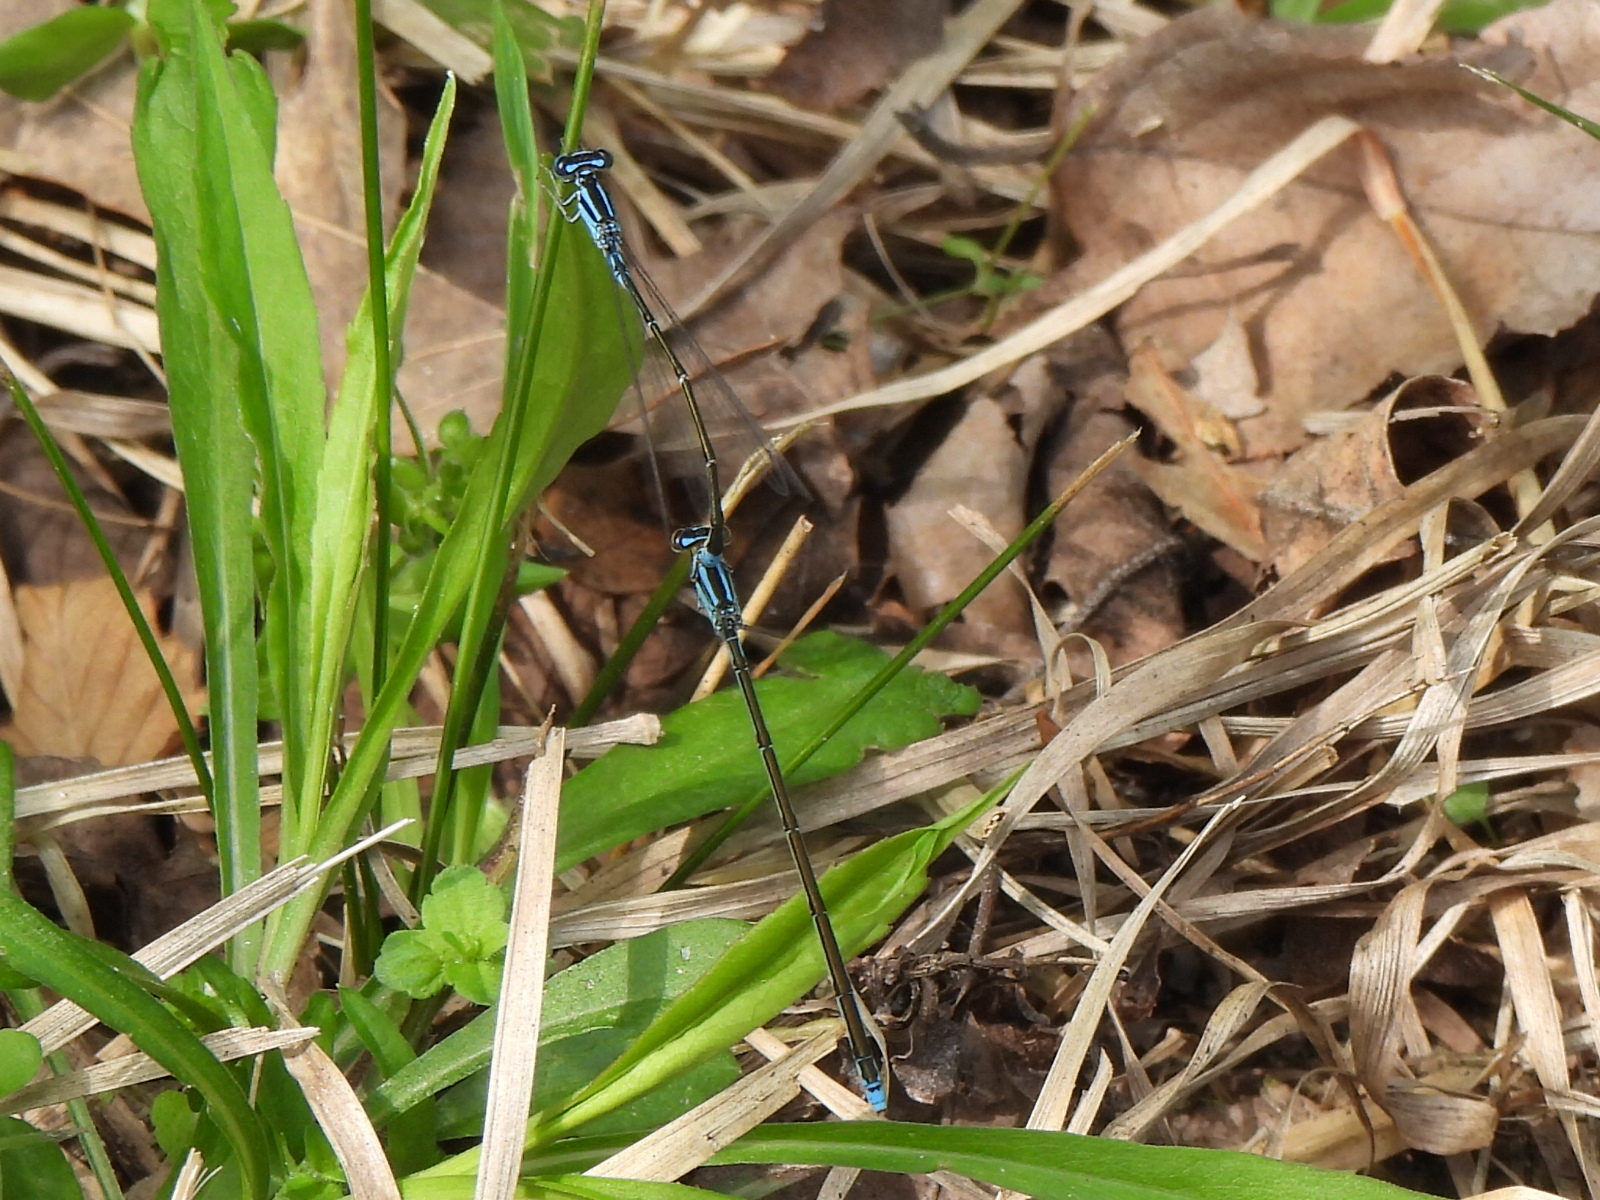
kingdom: Animalia
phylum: Arthropoda
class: Insecta
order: Odonata
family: Coenagrionidae
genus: Enallagma
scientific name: Enallagma divagans
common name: Turquoise bluet
